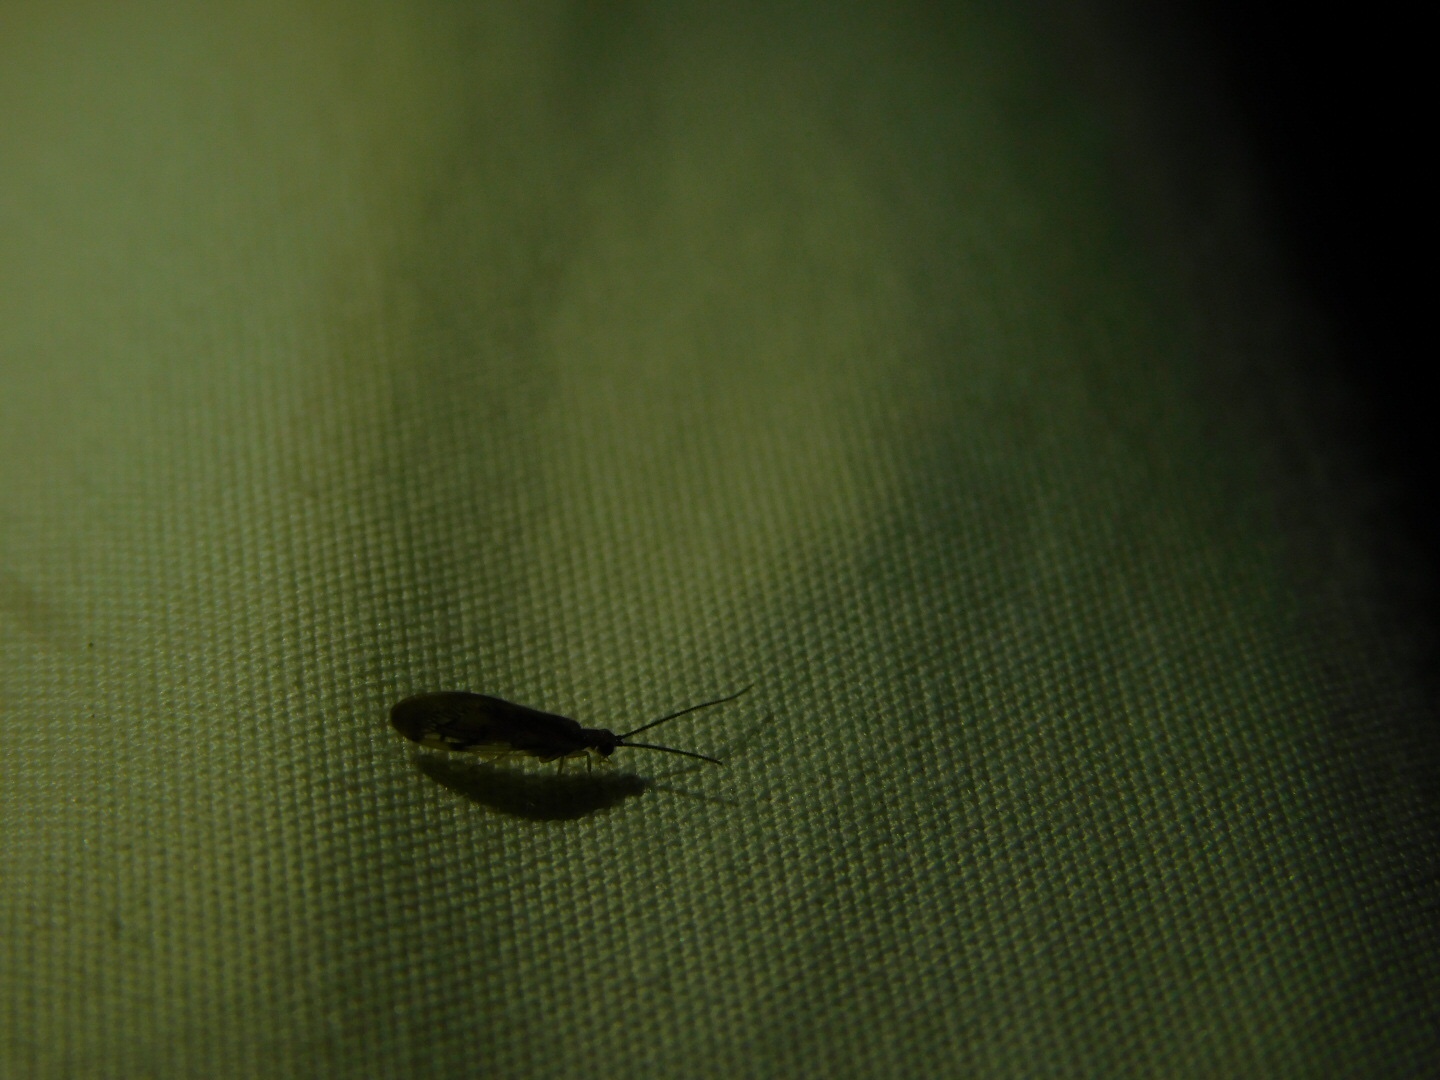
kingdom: Animalia
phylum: Arthropoda
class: Insecta
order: Neuroptera
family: Sisyridae
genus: Climacia
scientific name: Climacia areolaris
